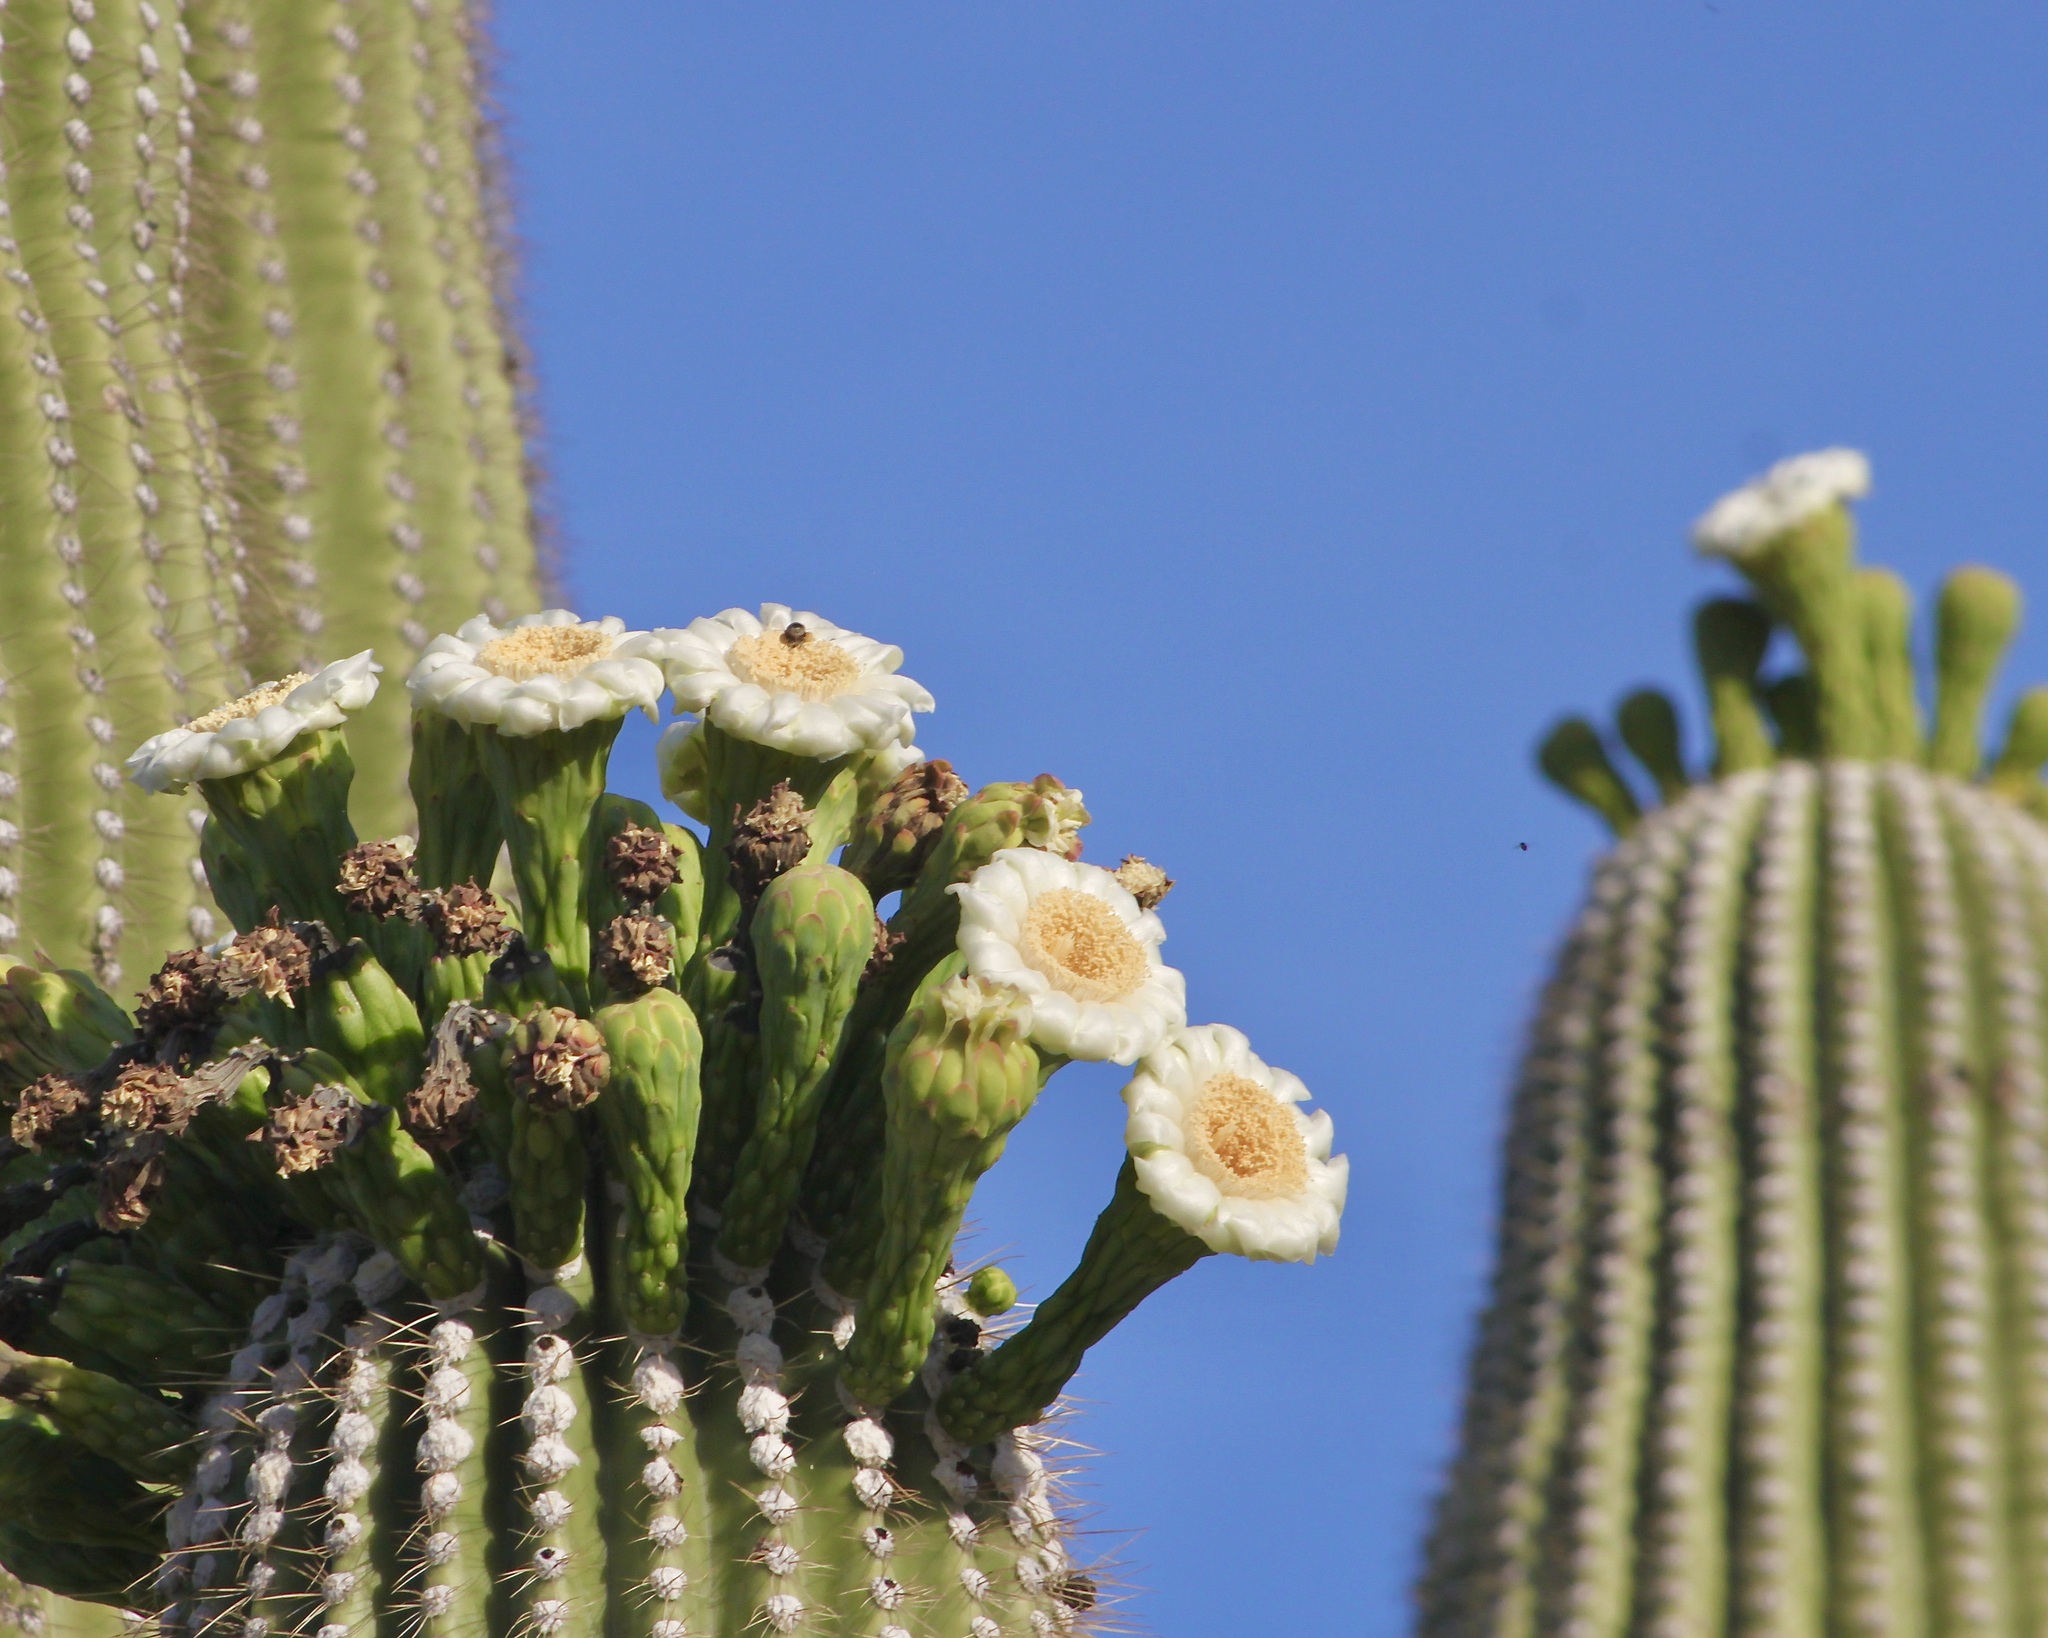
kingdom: Plantae
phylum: Tracheophyta
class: Magnoliopsida
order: Caryophyllales
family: Cactaceae
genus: Carnegiea
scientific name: Carnegiea gigantea
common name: Saguaro
